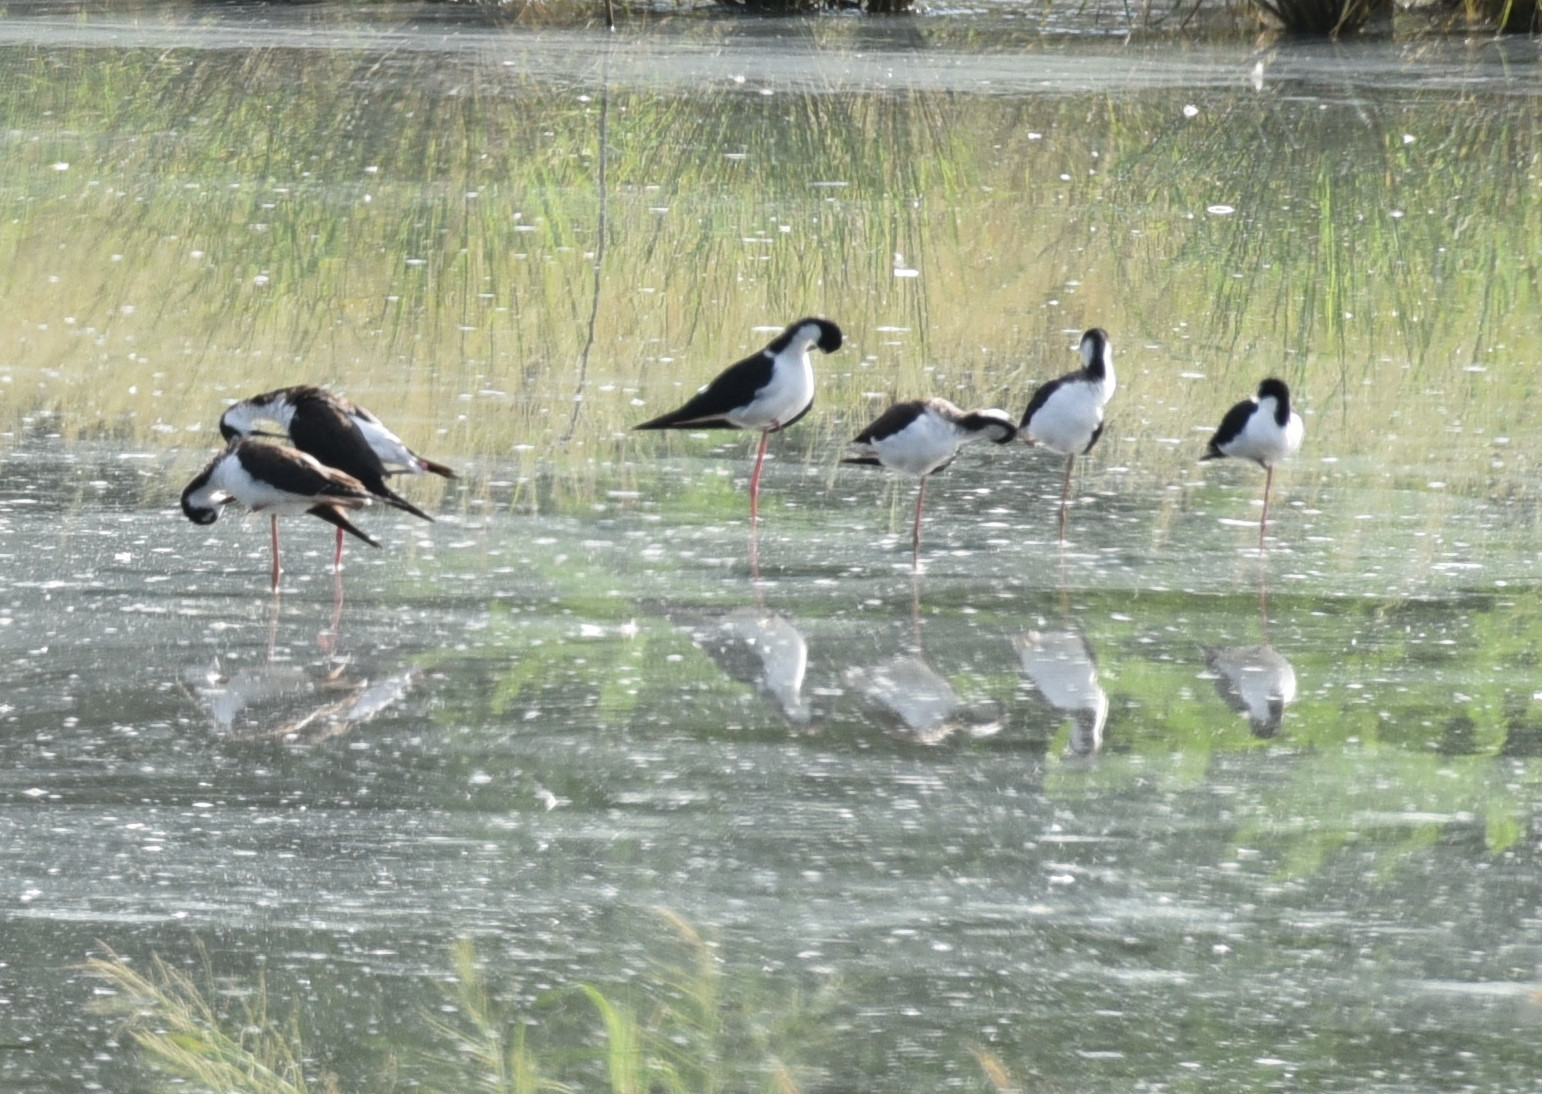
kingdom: Animalia
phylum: Chordata
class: Aves
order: Charadriiformes
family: Recurvirostridae
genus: Himantopus
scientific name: Himantopus mexicanus
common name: Black-necked stilt
